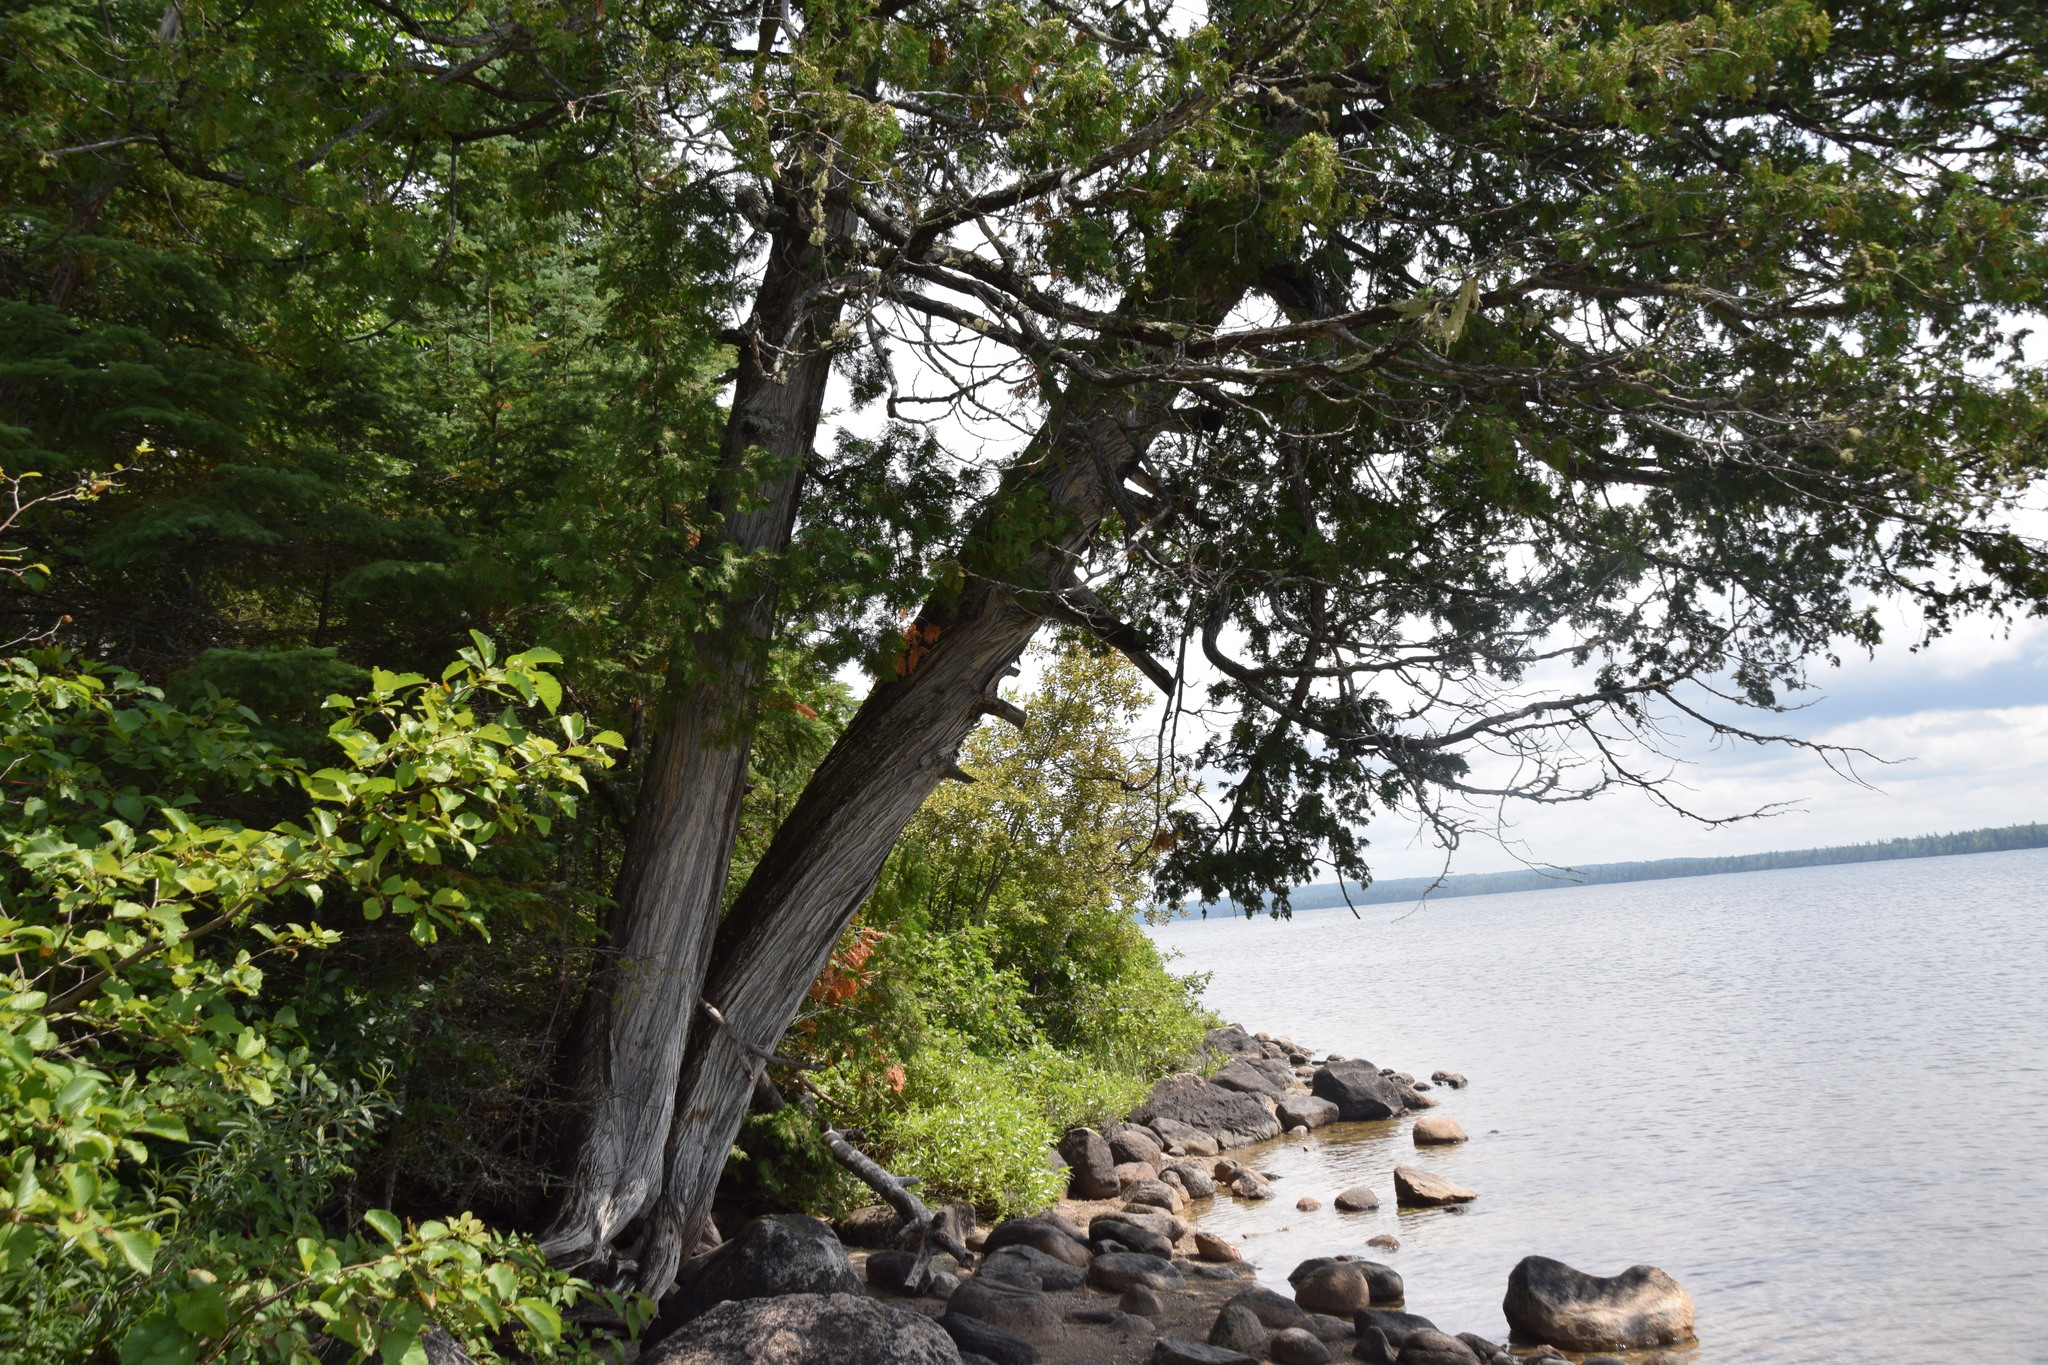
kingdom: Plantae
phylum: Tracheophyta
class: Pinopsida
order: Pinales
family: Cupressaceae
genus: Thuja
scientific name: Thuja occidentalis
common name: Northern white-cedar
